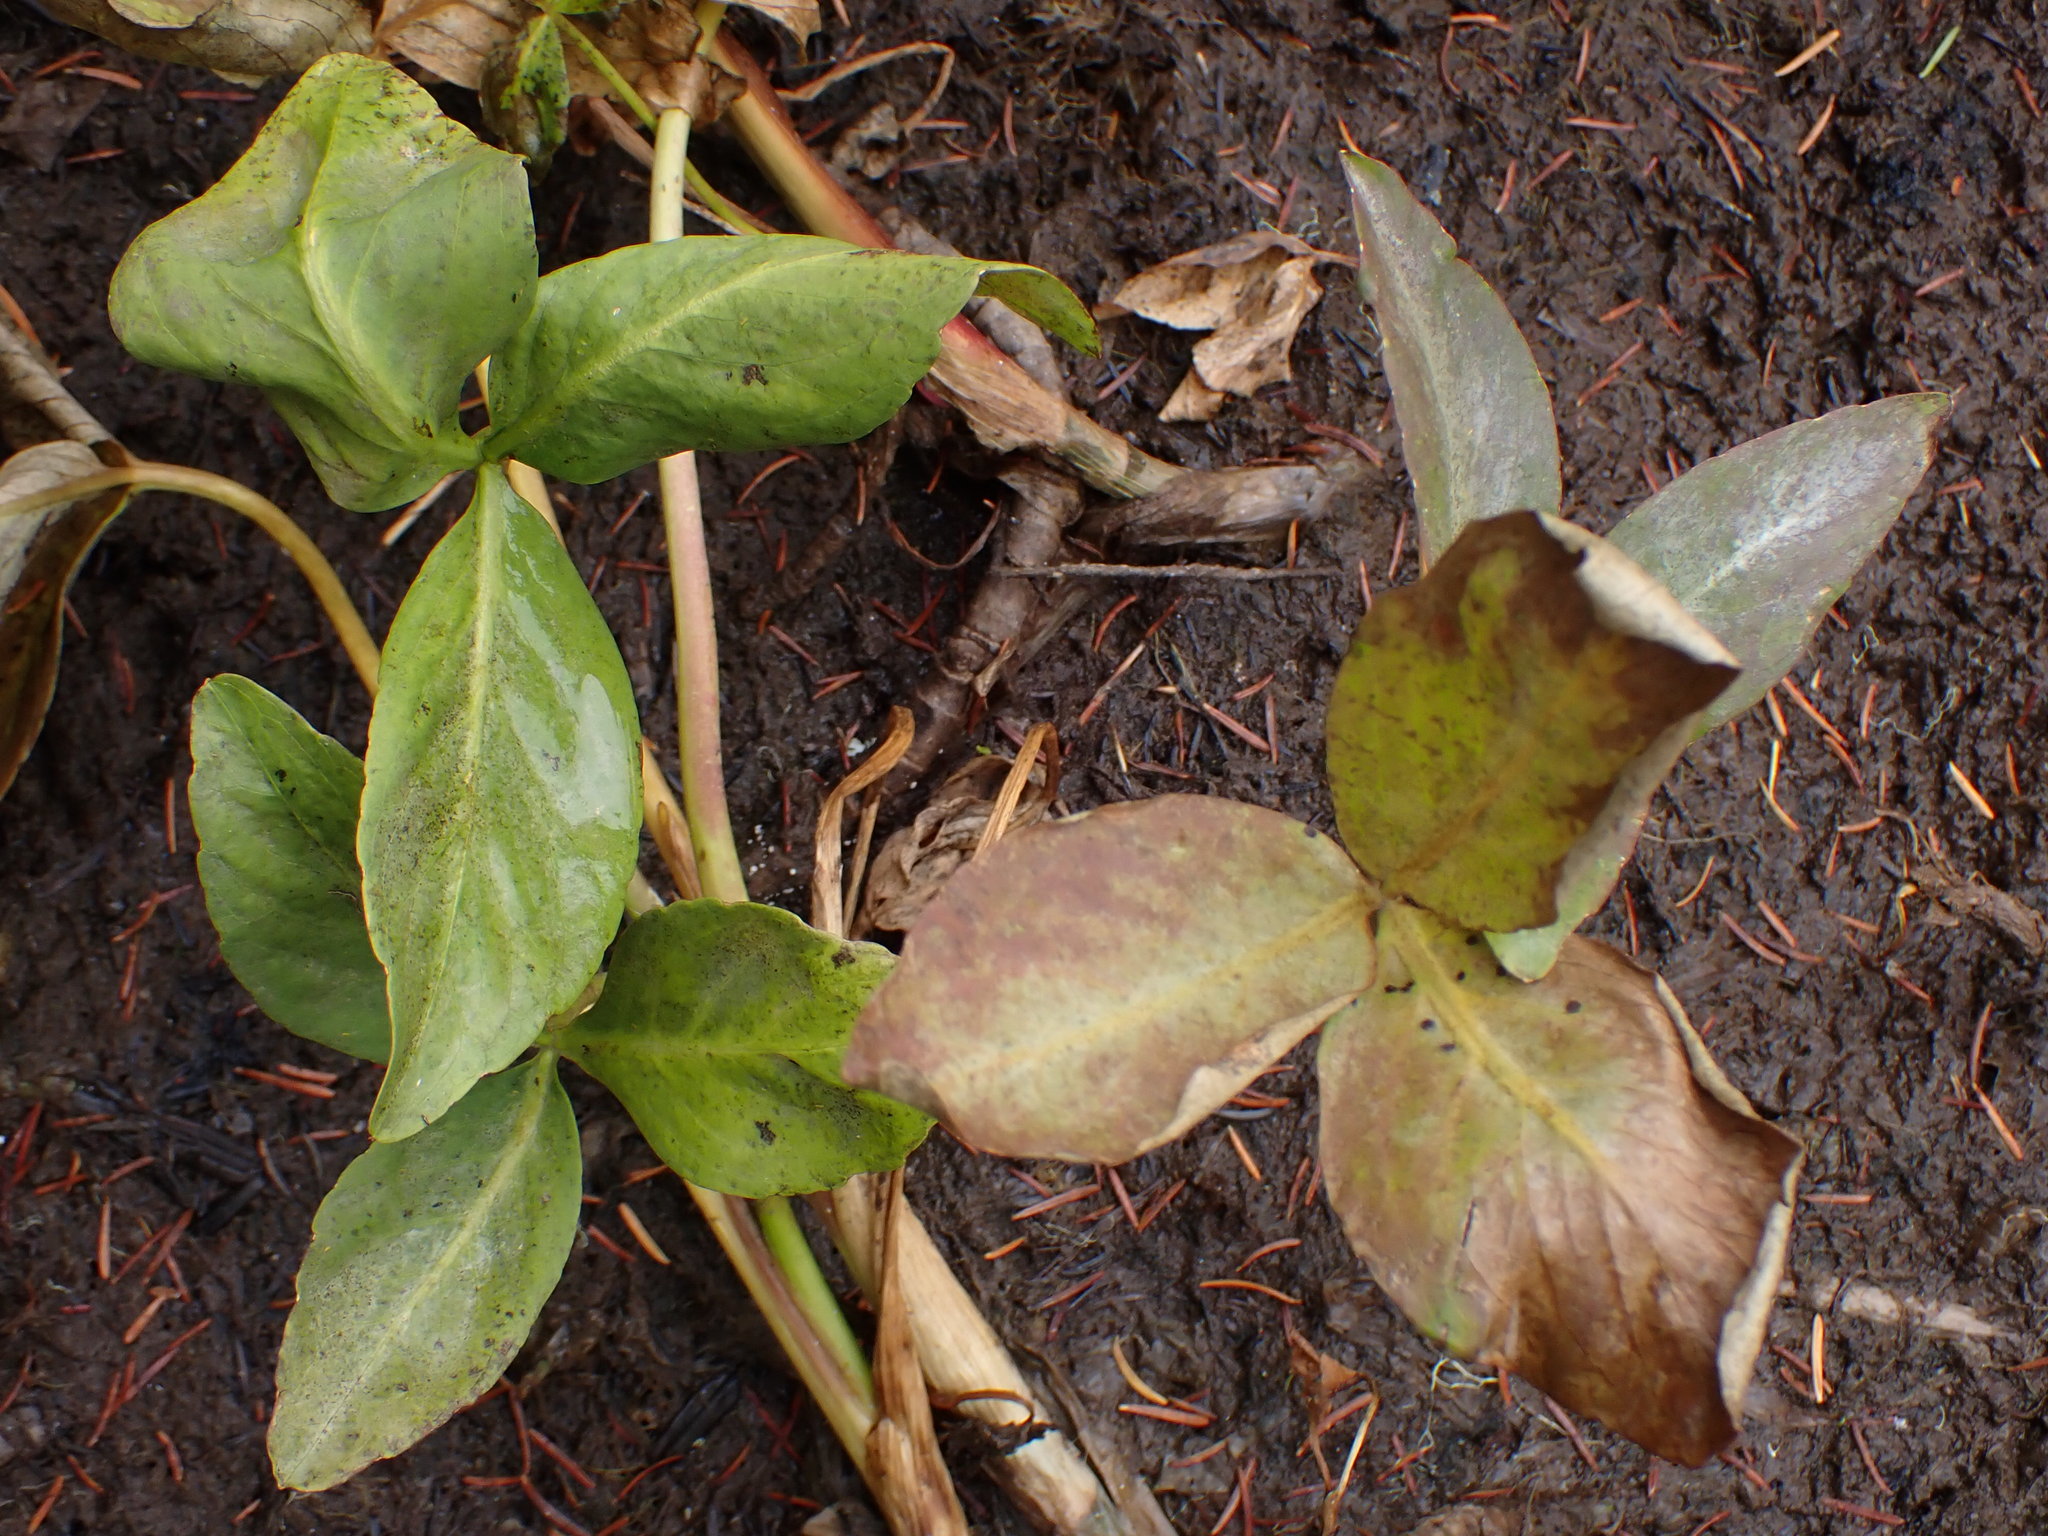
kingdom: Plantae
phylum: Tracheophyta
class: Magnoliopsida
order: Asterales
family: Menyanthaceae
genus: Menyanthes
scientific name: Menyanthes trifoliata
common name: Bogbean
